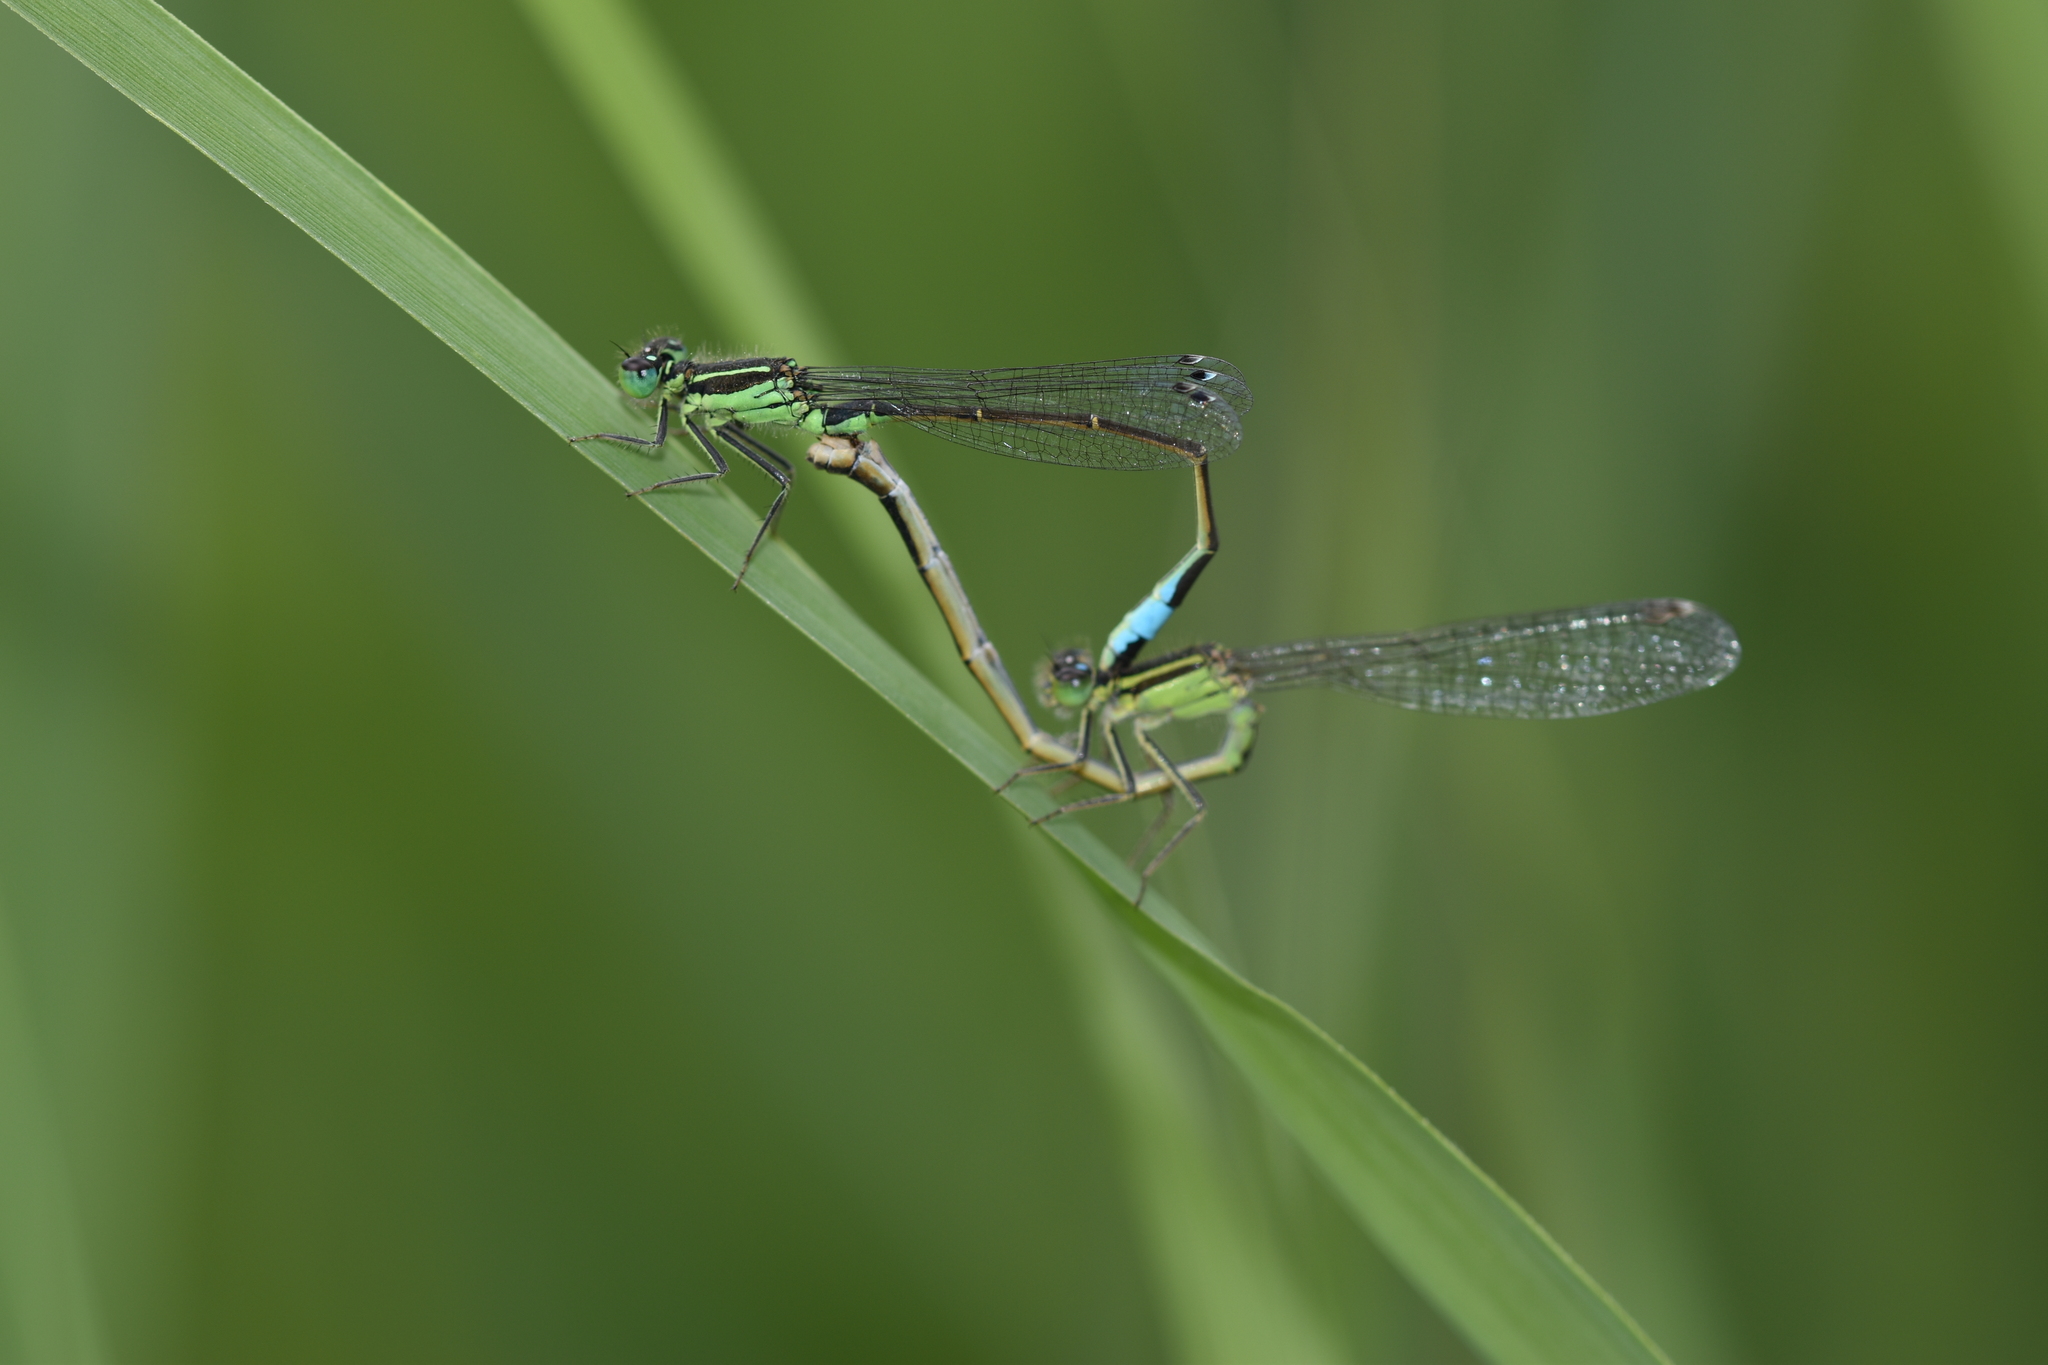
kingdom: Animalia
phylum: Arthropoda
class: Insecta
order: Odonata
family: Coenagrionidae
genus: Ischnura
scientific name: Ischnura genei
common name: Island bluetail
